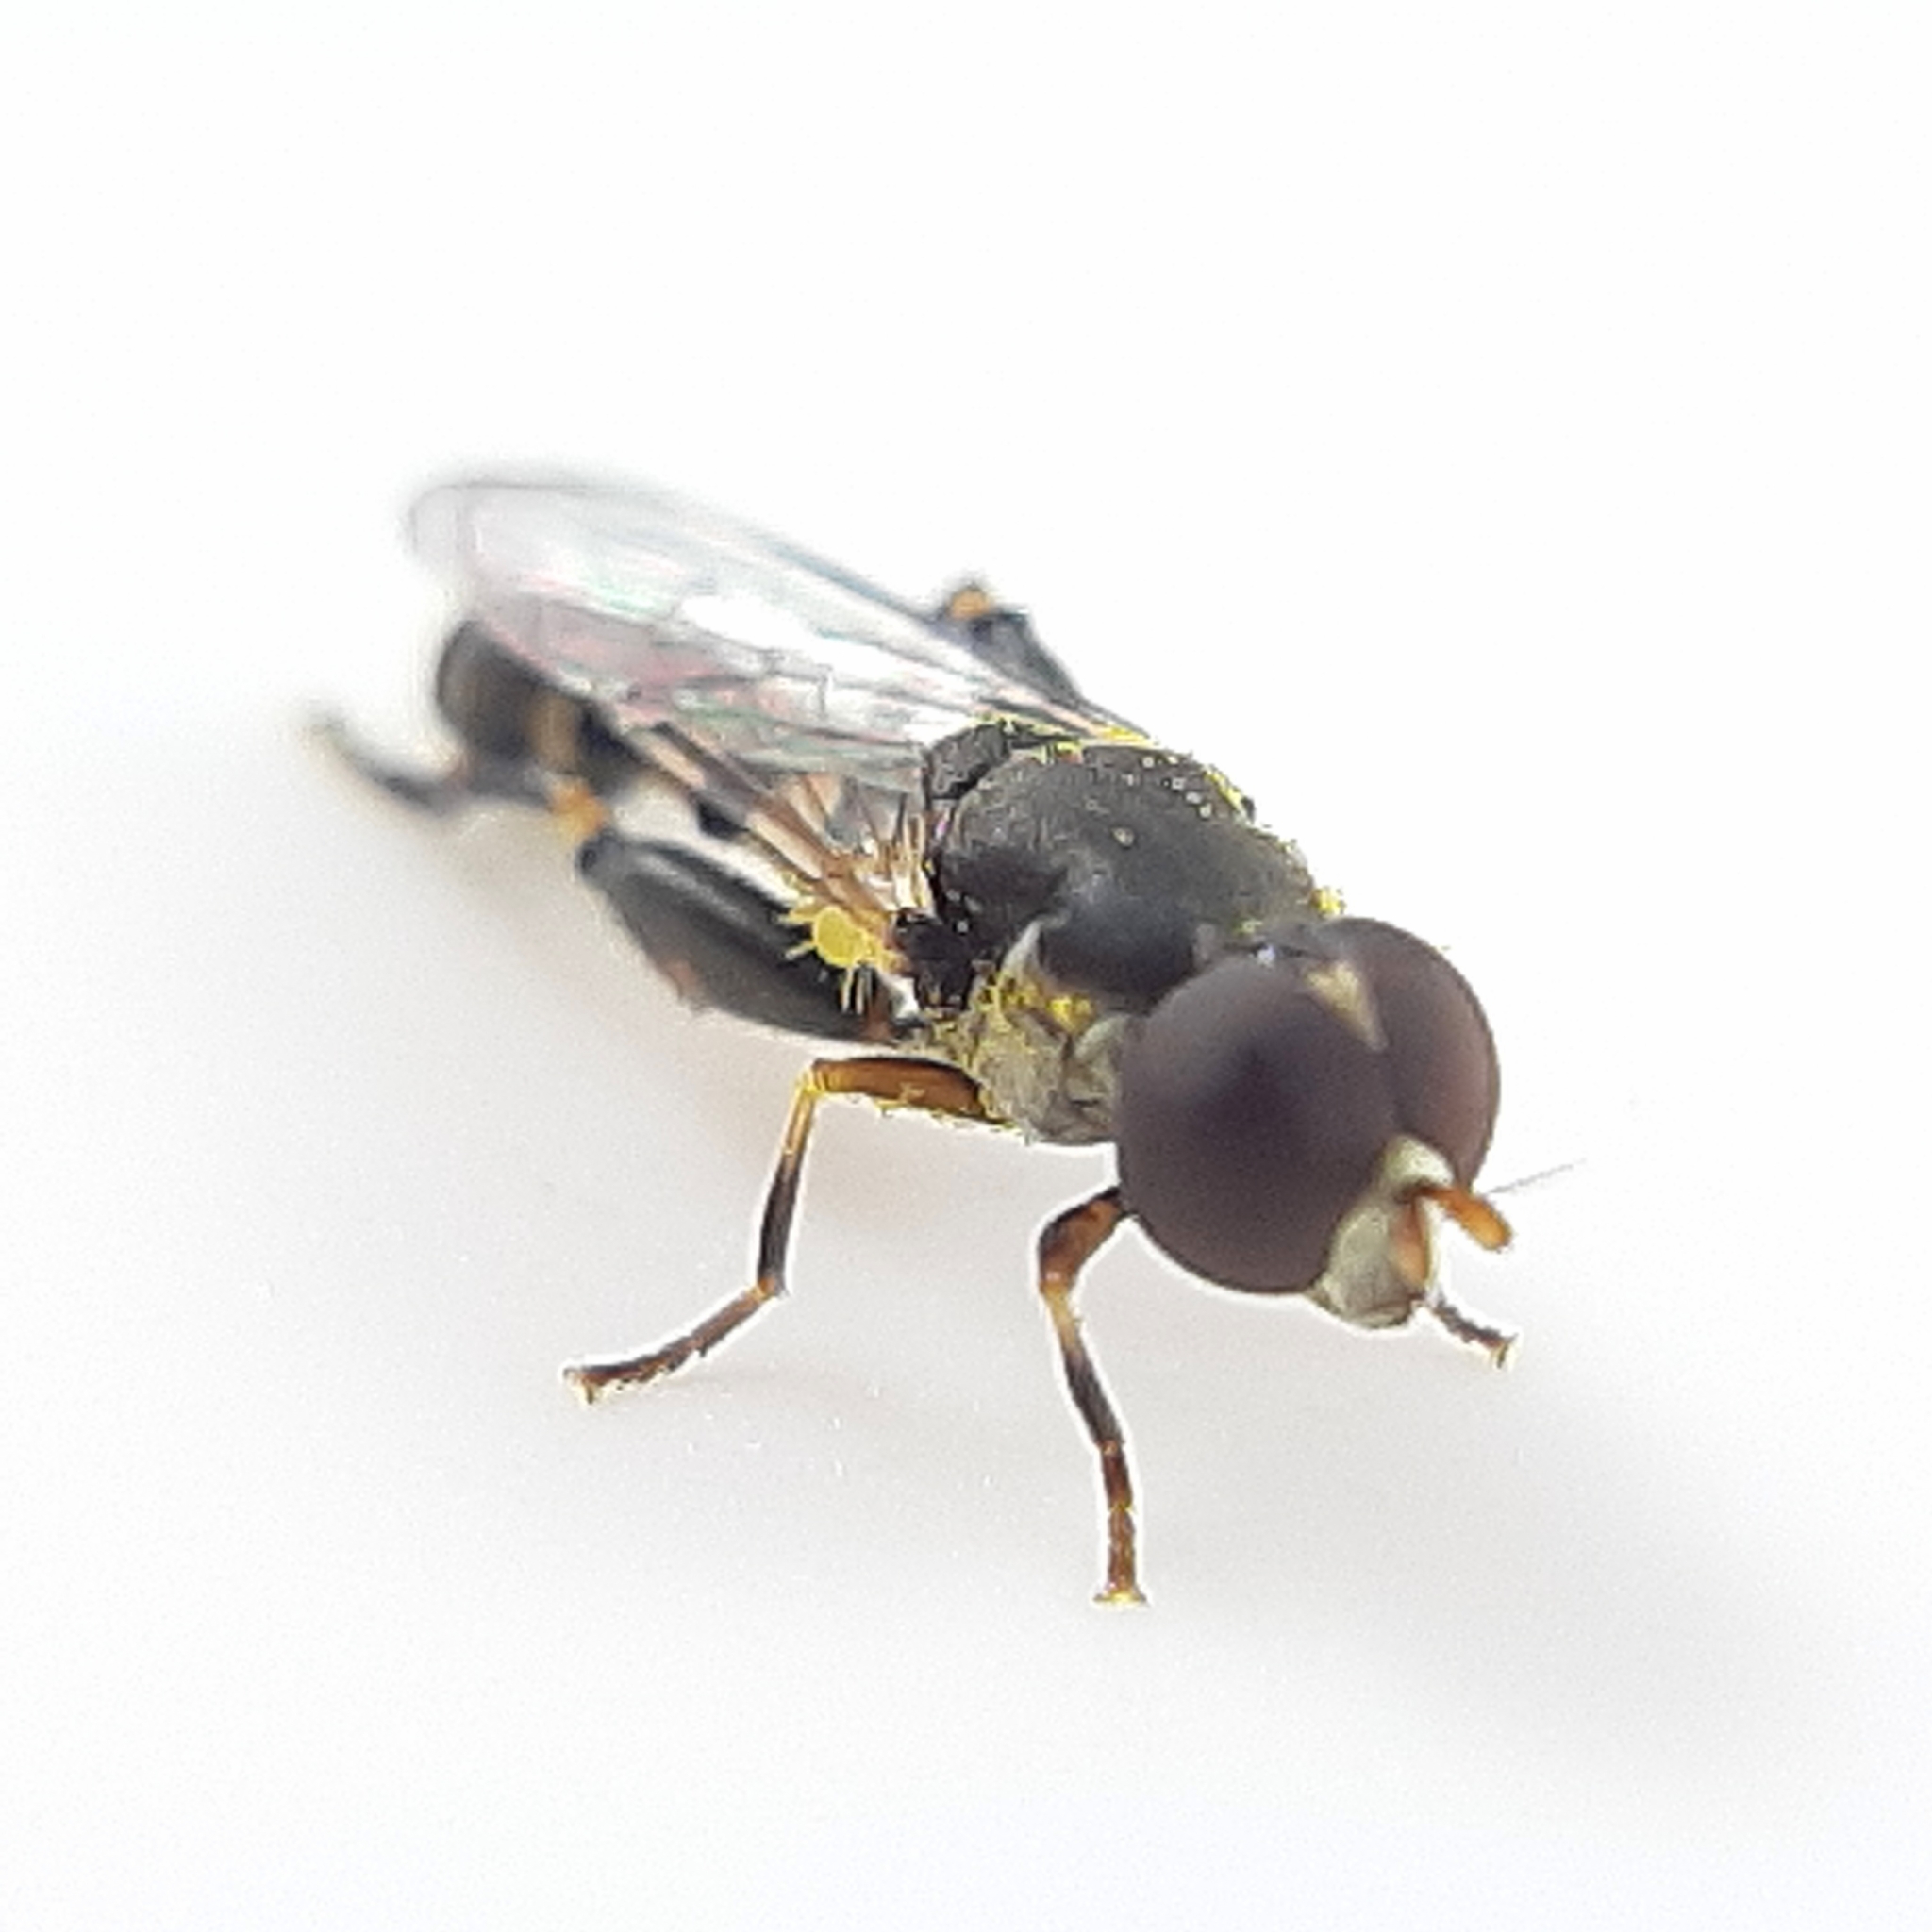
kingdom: Animalia
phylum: Arthropoda
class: Insecta
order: Diptera
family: Syrphidae
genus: Syritta
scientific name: Syritta pipiens
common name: Hover fly
